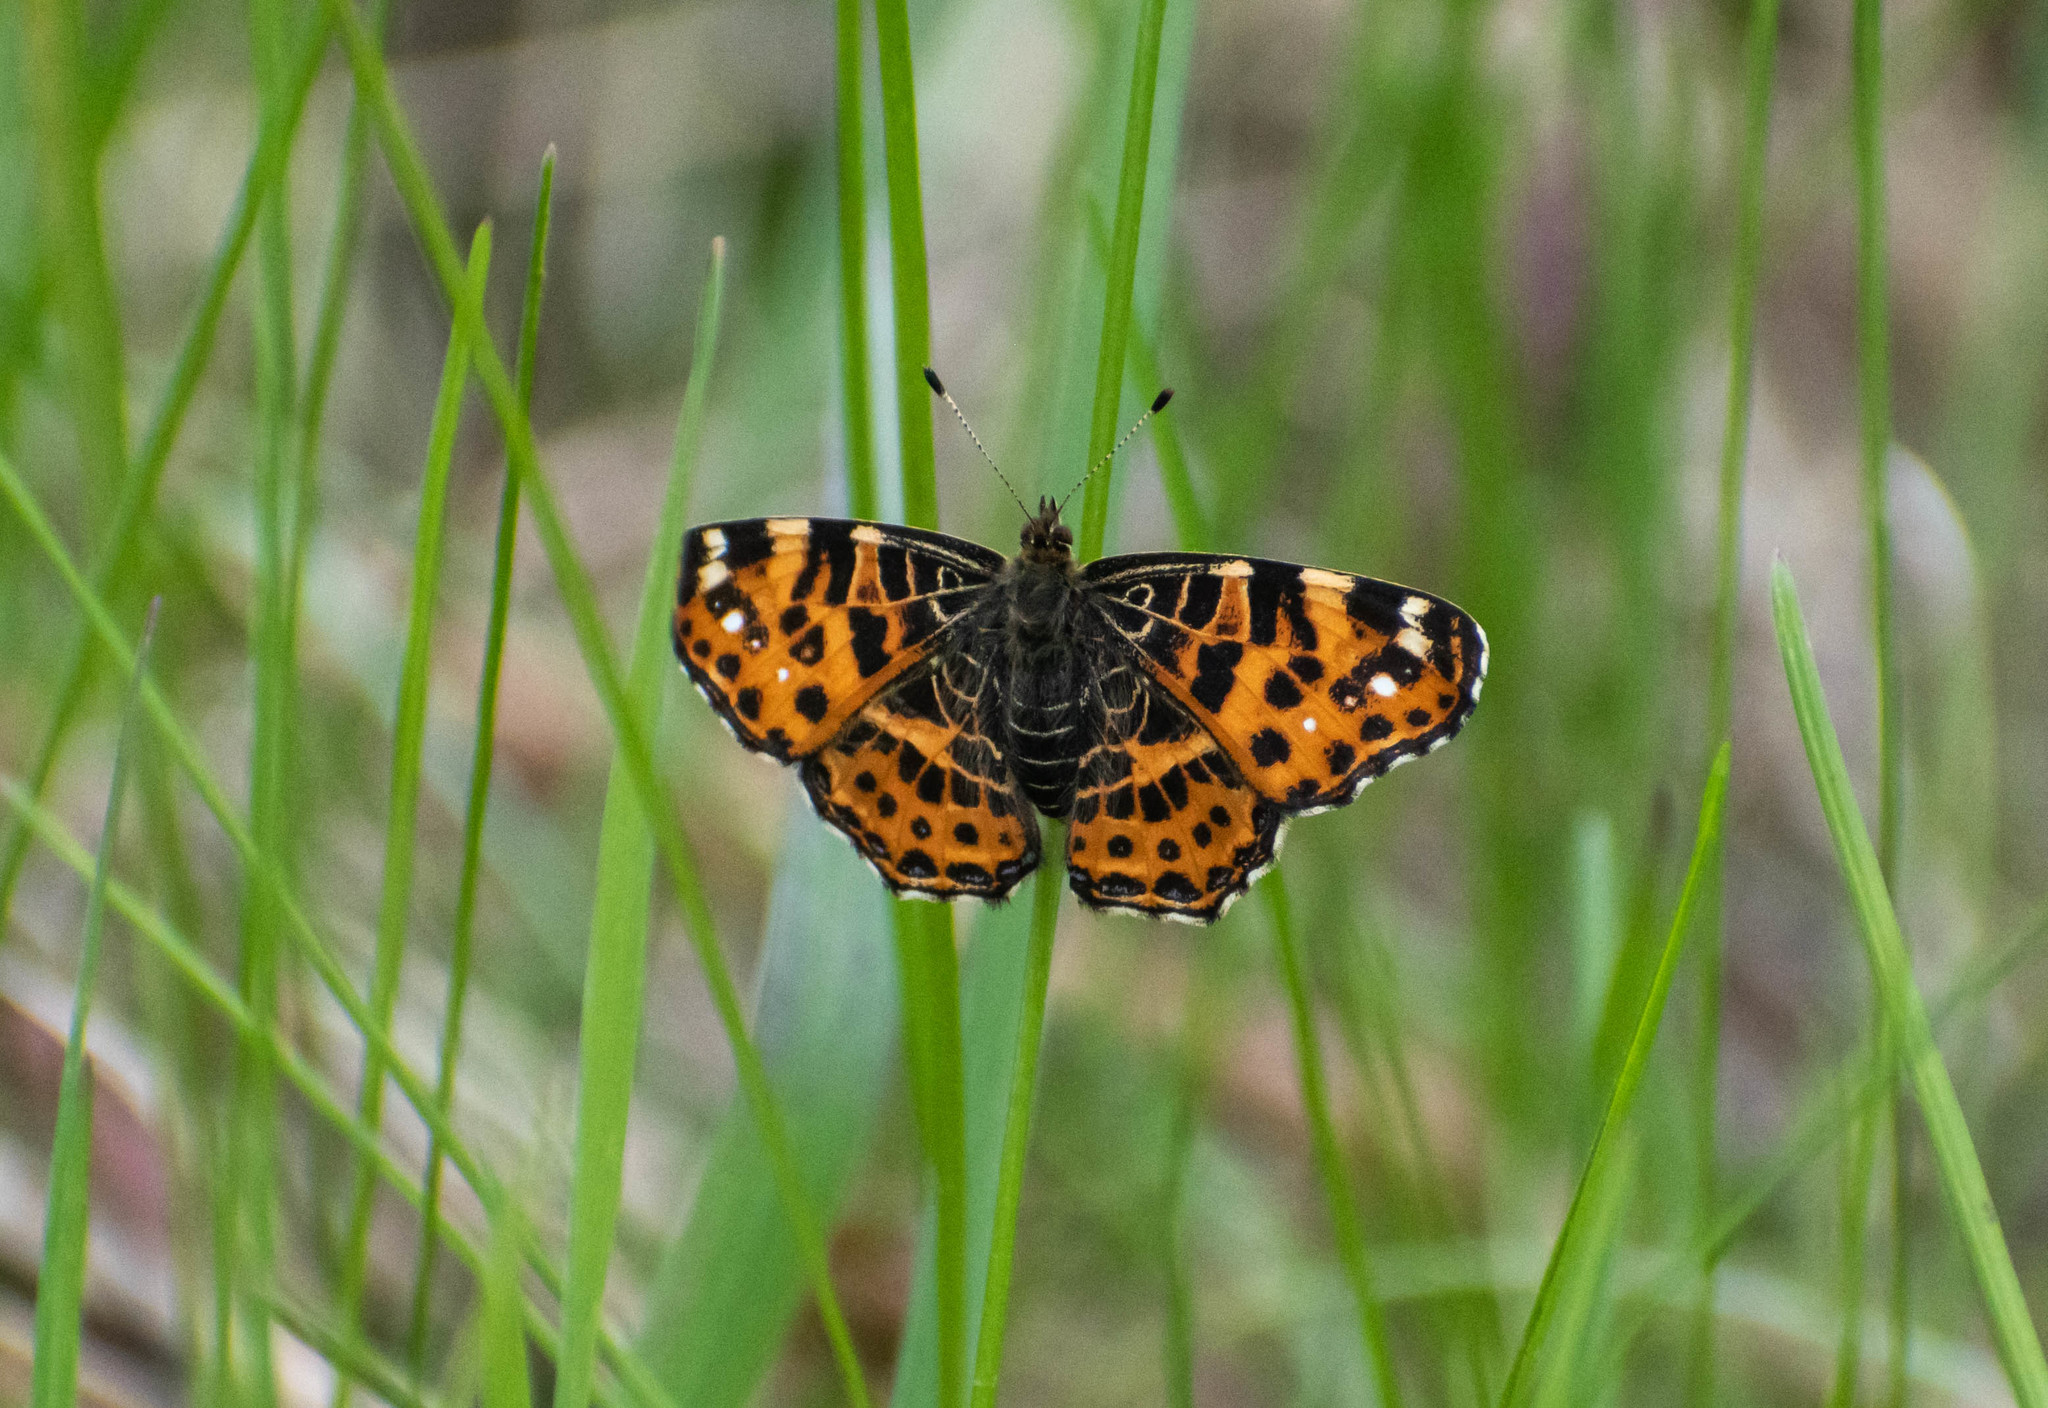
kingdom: Animalia
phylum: Arthropoda
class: Insecta
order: Lepidoptera
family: Nymphalidae
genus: Araschnia
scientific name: Araschnia levana
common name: Map butterfly
